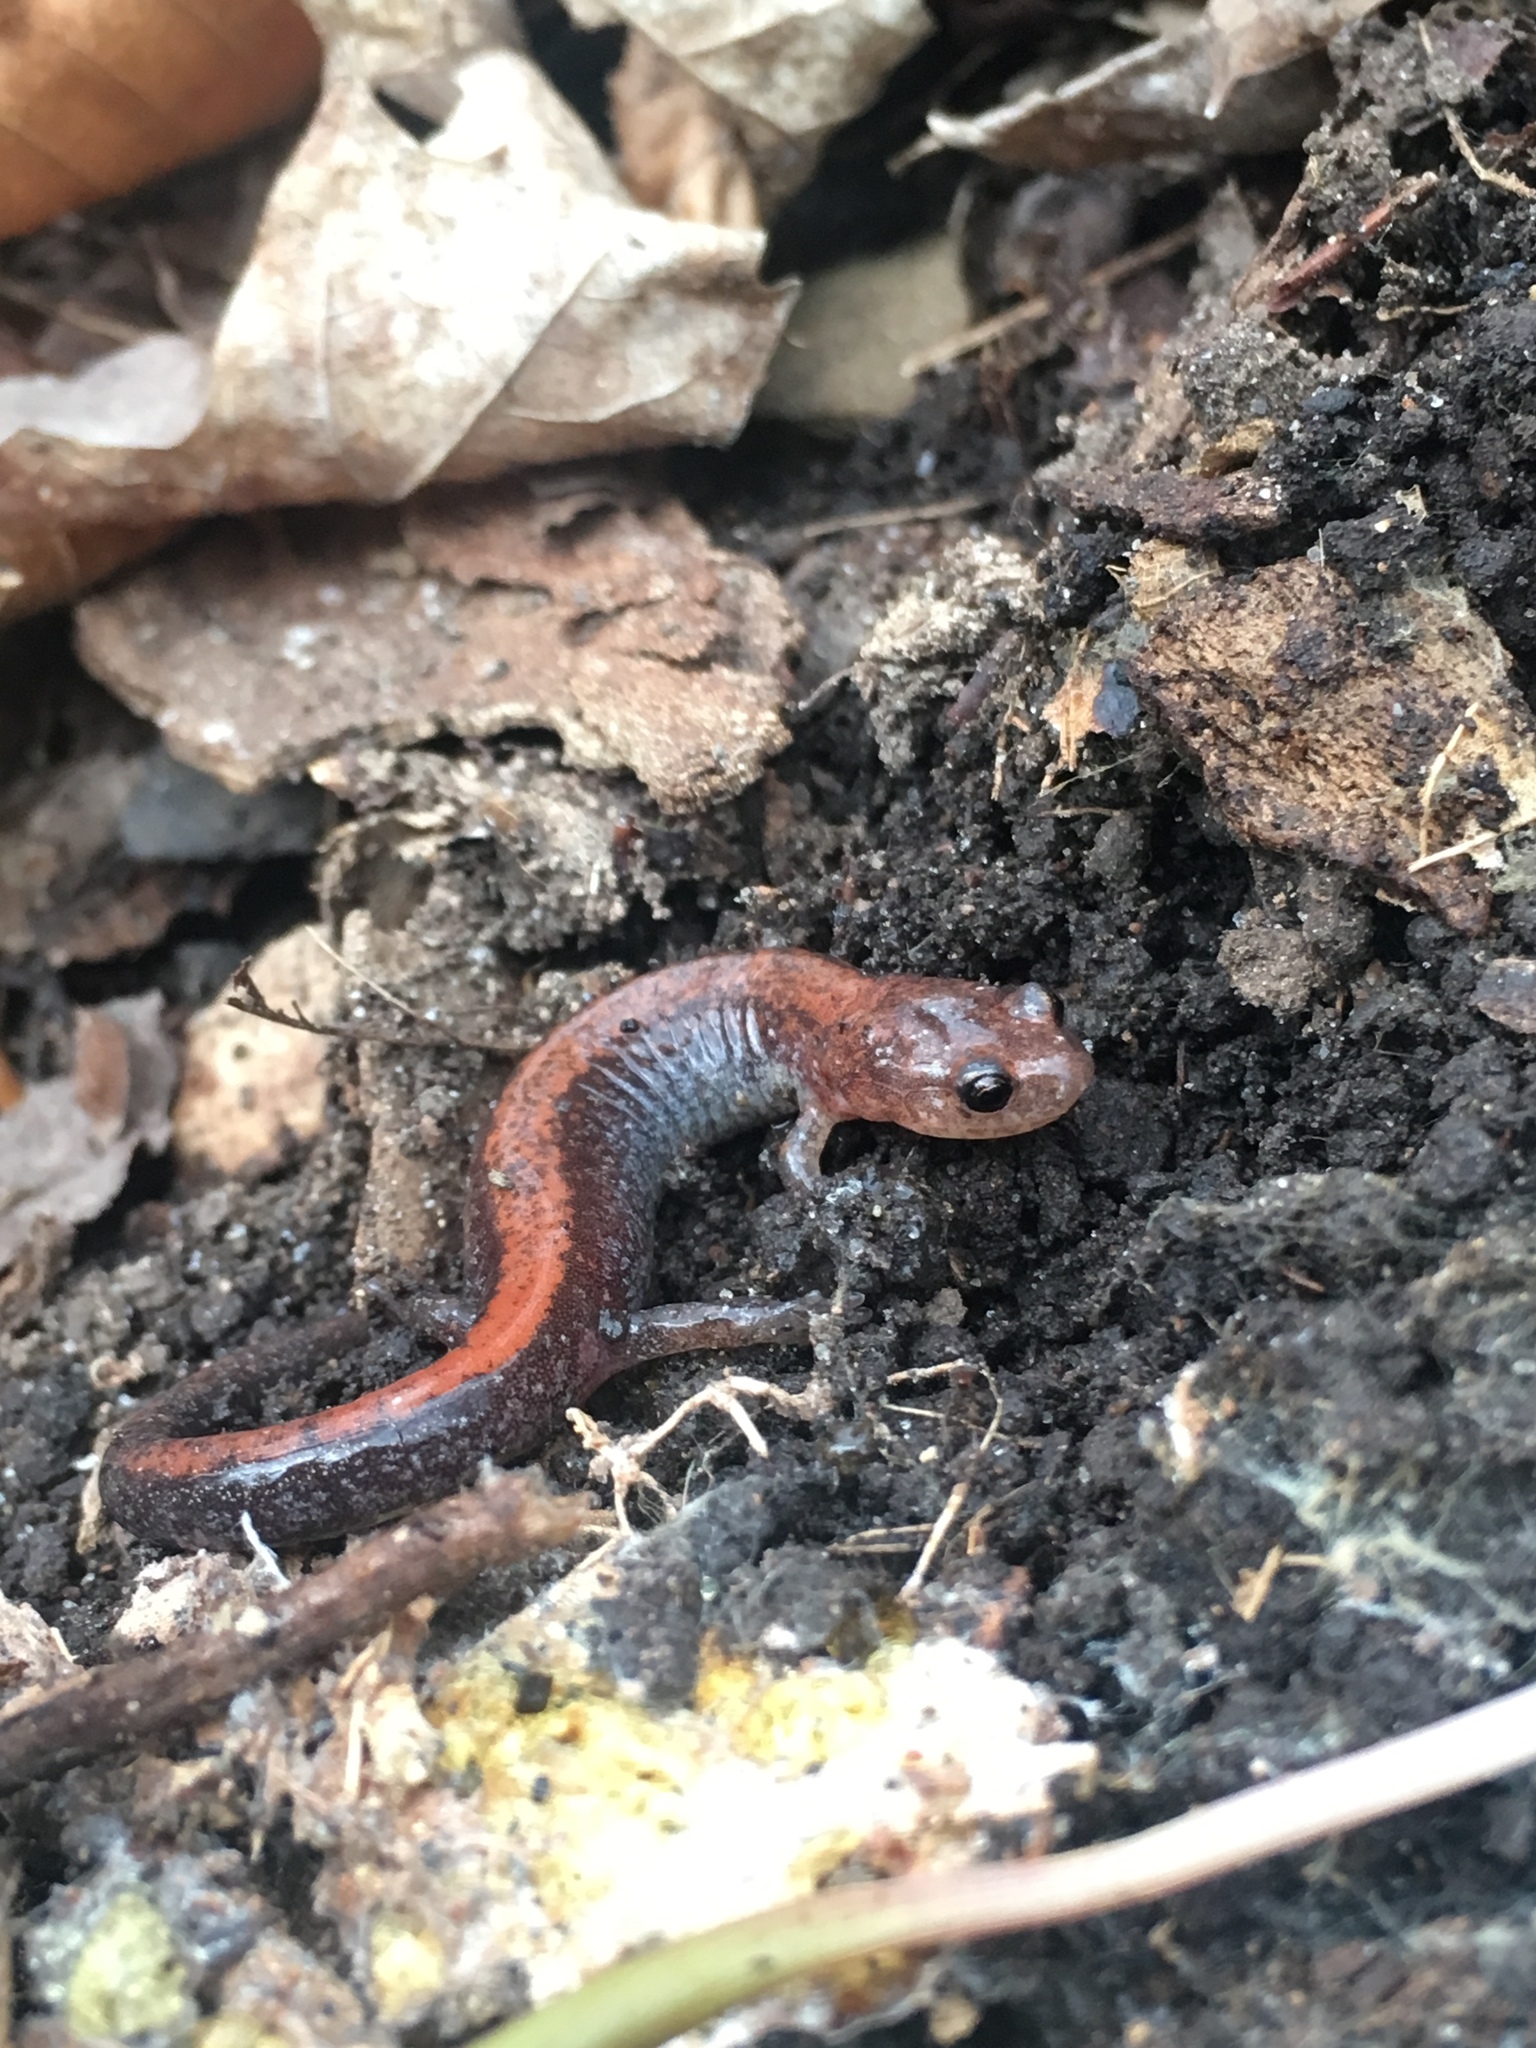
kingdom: Animalia
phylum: Chordata
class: Amphibia
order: Caudata
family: Plethodontidae
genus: Plethodon
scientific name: Plethodon cinereus
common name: Redback salamander
